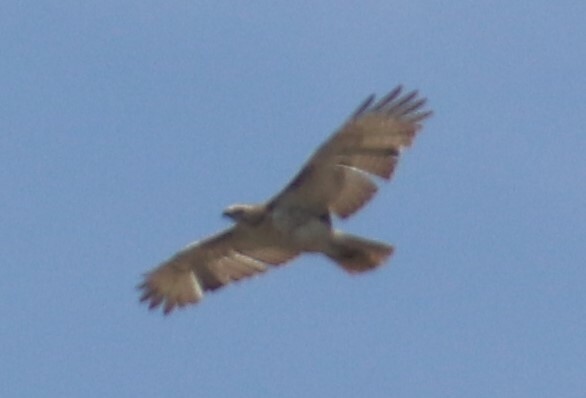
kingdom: Animalia
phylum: Chordata
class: Aves
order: Accipitriformes
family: Accipitridae
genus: Buteo
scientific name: Buteo jamaicensis
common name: Red-tailed hawk
